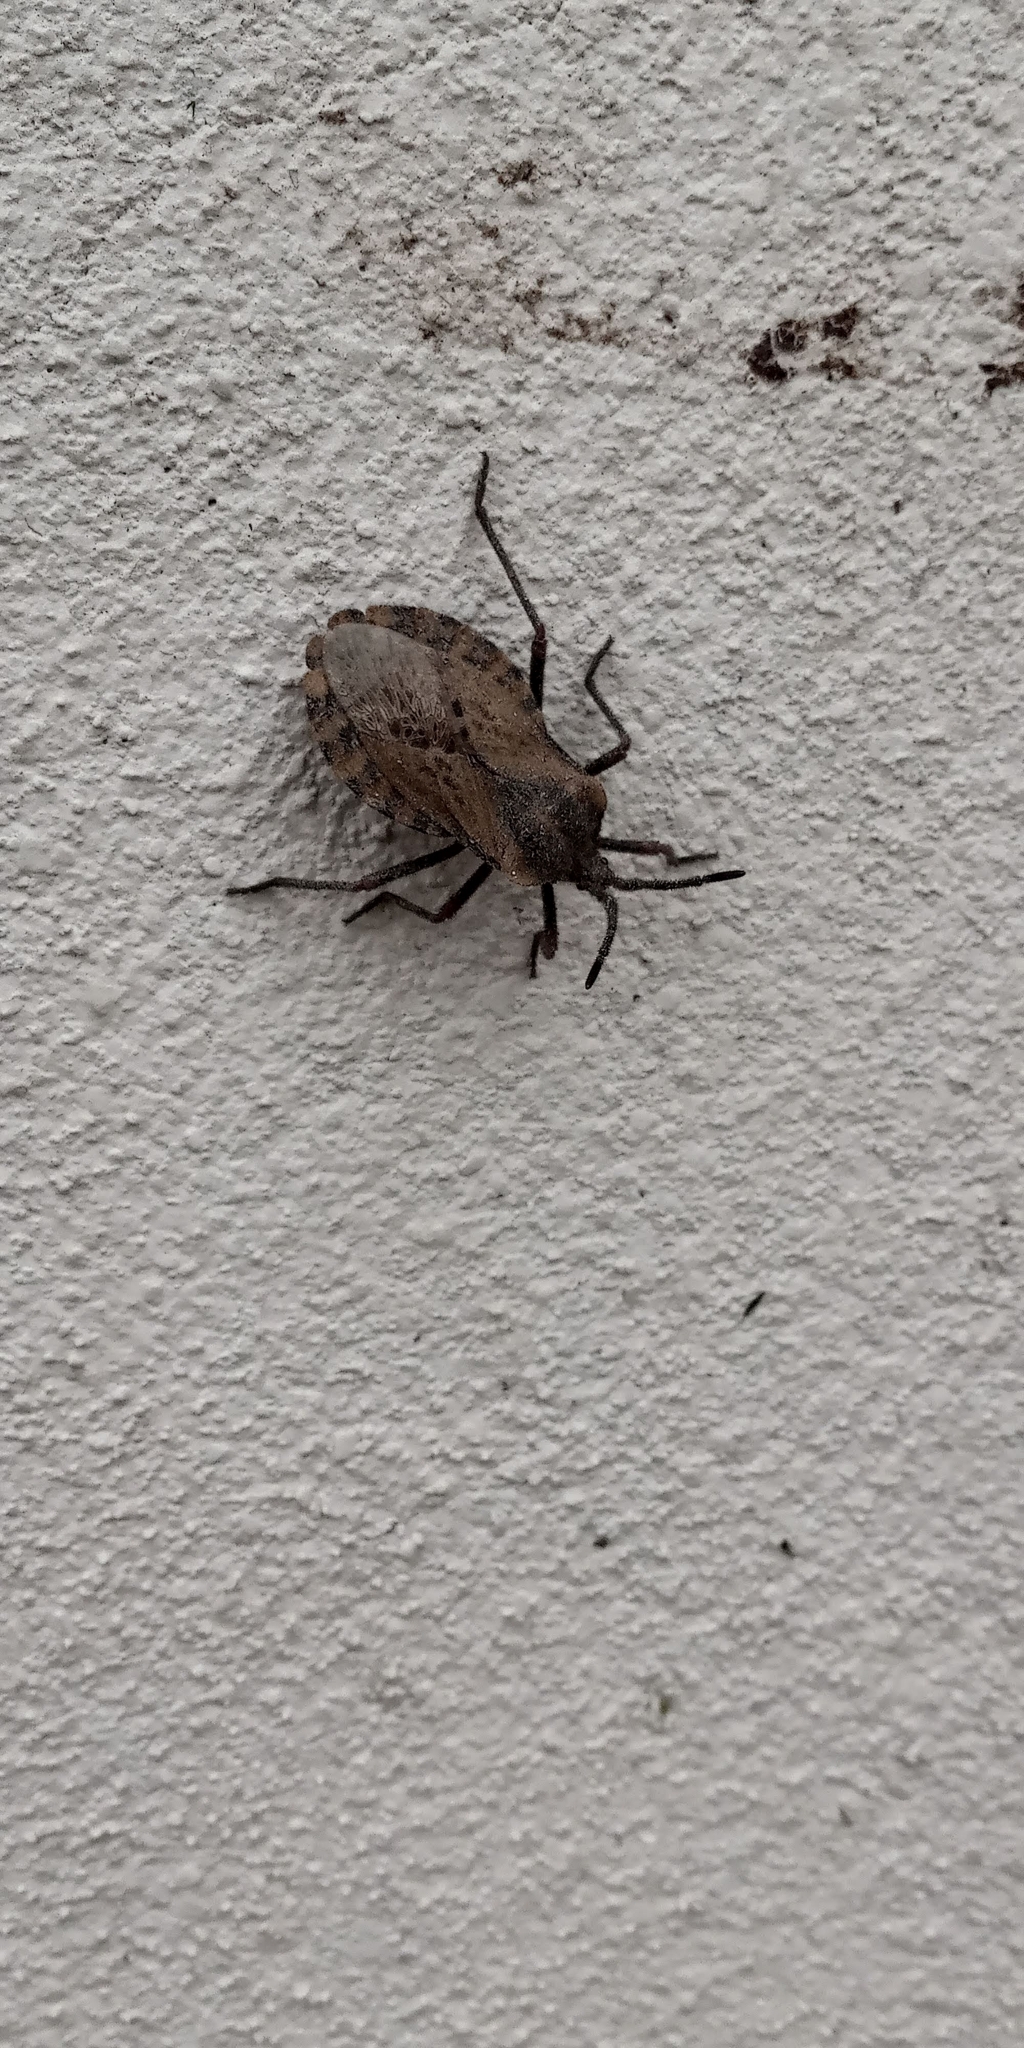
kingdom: Animalia
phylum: Arthropoda
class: Insecta
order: Hemiptera
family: Coreidae
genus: Spartocera
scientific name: Spartocera fusca
